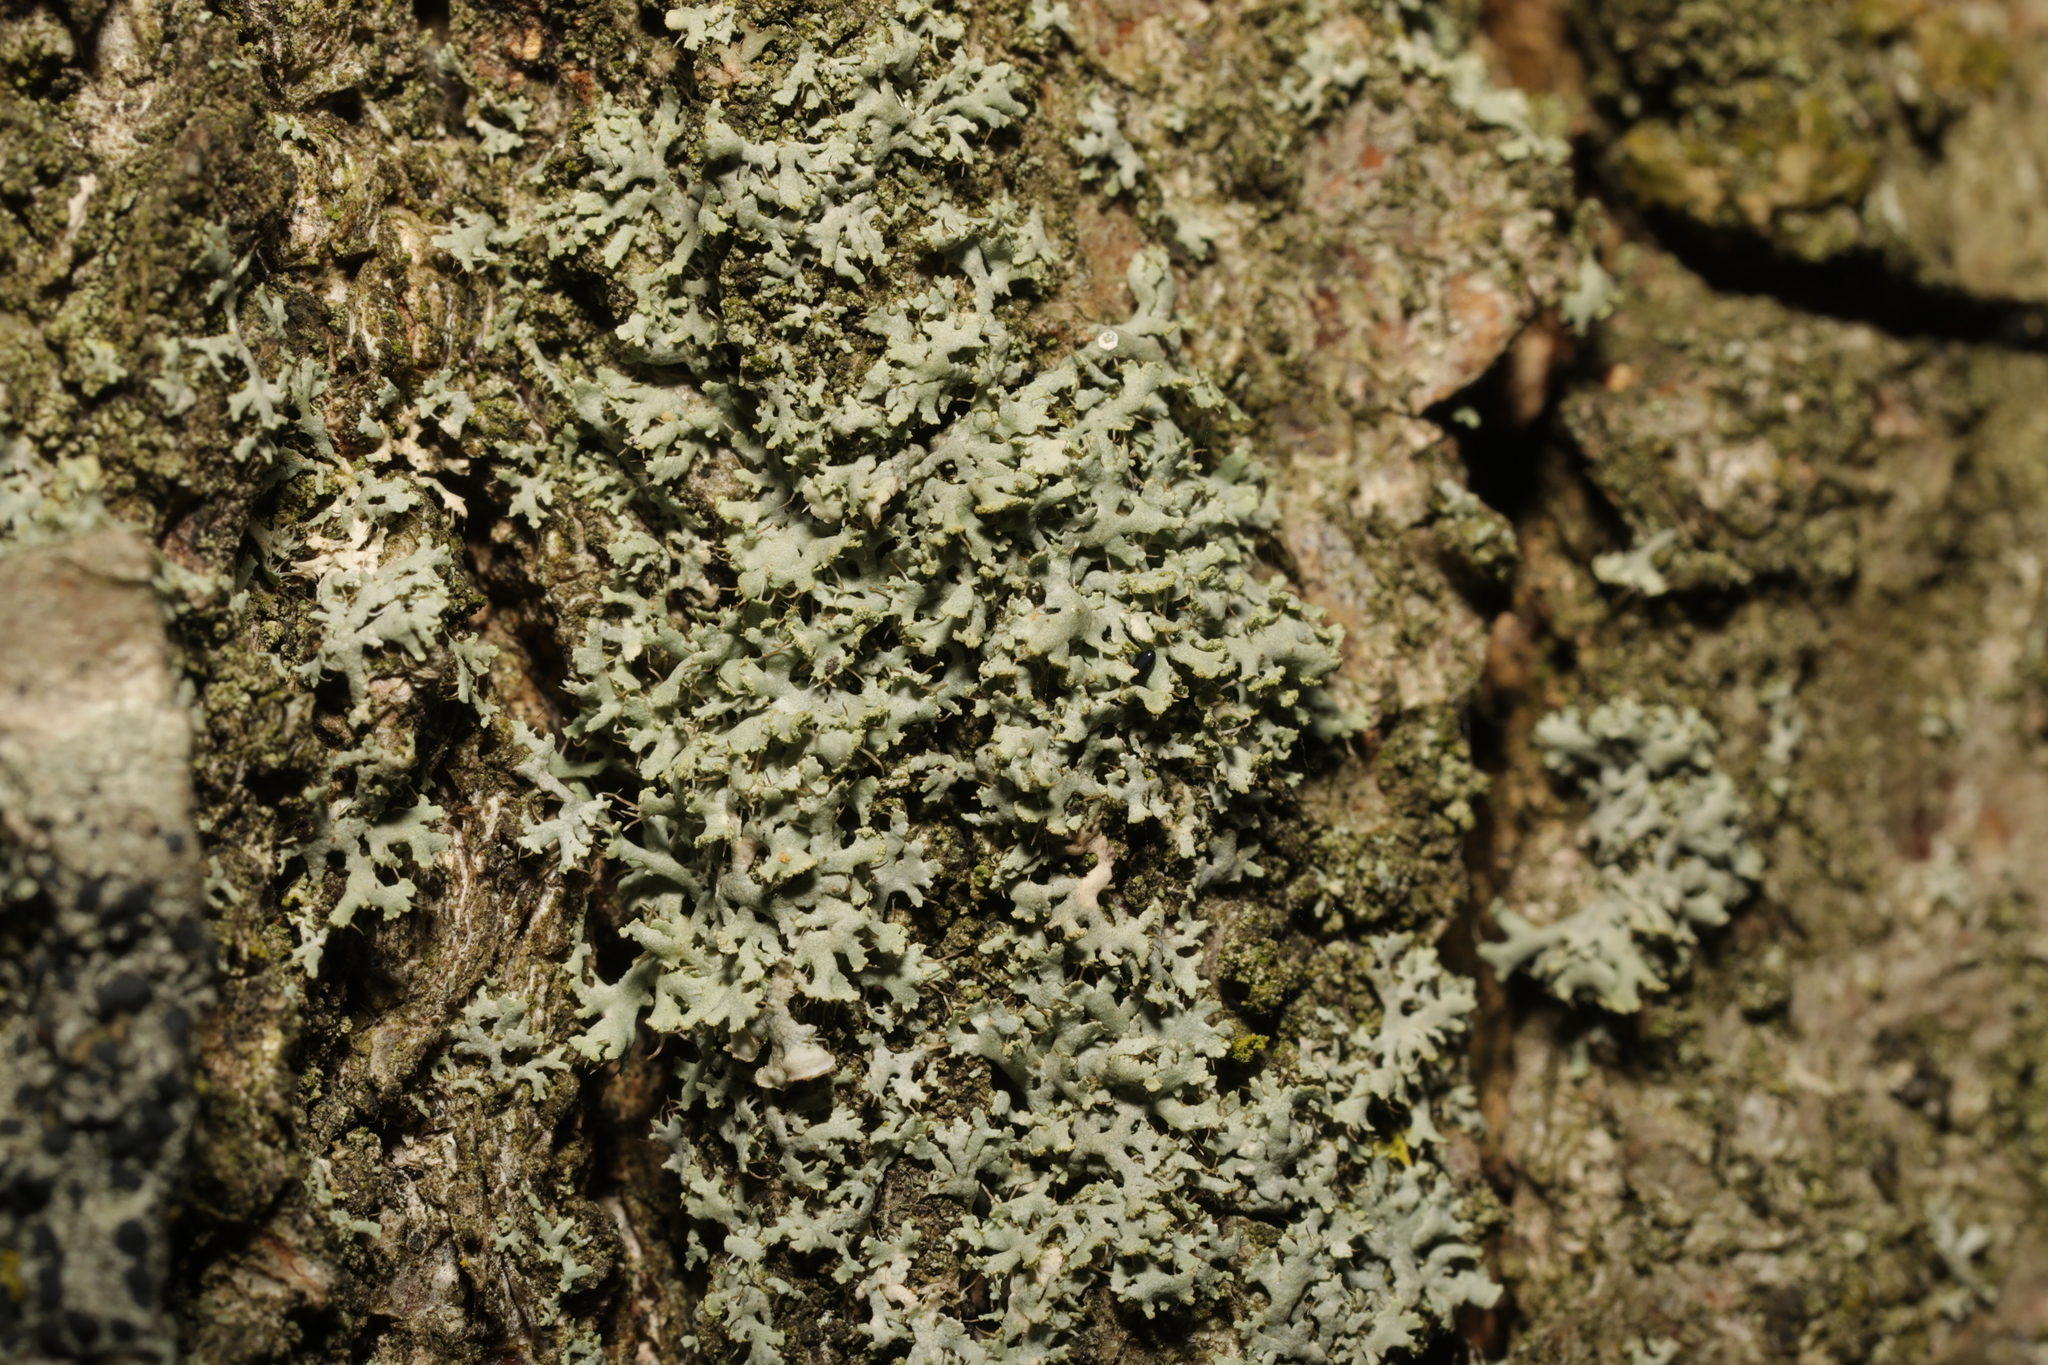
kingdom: Fungi
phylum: Ascomycota
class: Lecanoromycetes
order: Caliciales
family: Physciaceae
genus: Physcia
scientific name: Physcia tenella
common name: Fringed rosette lichen
